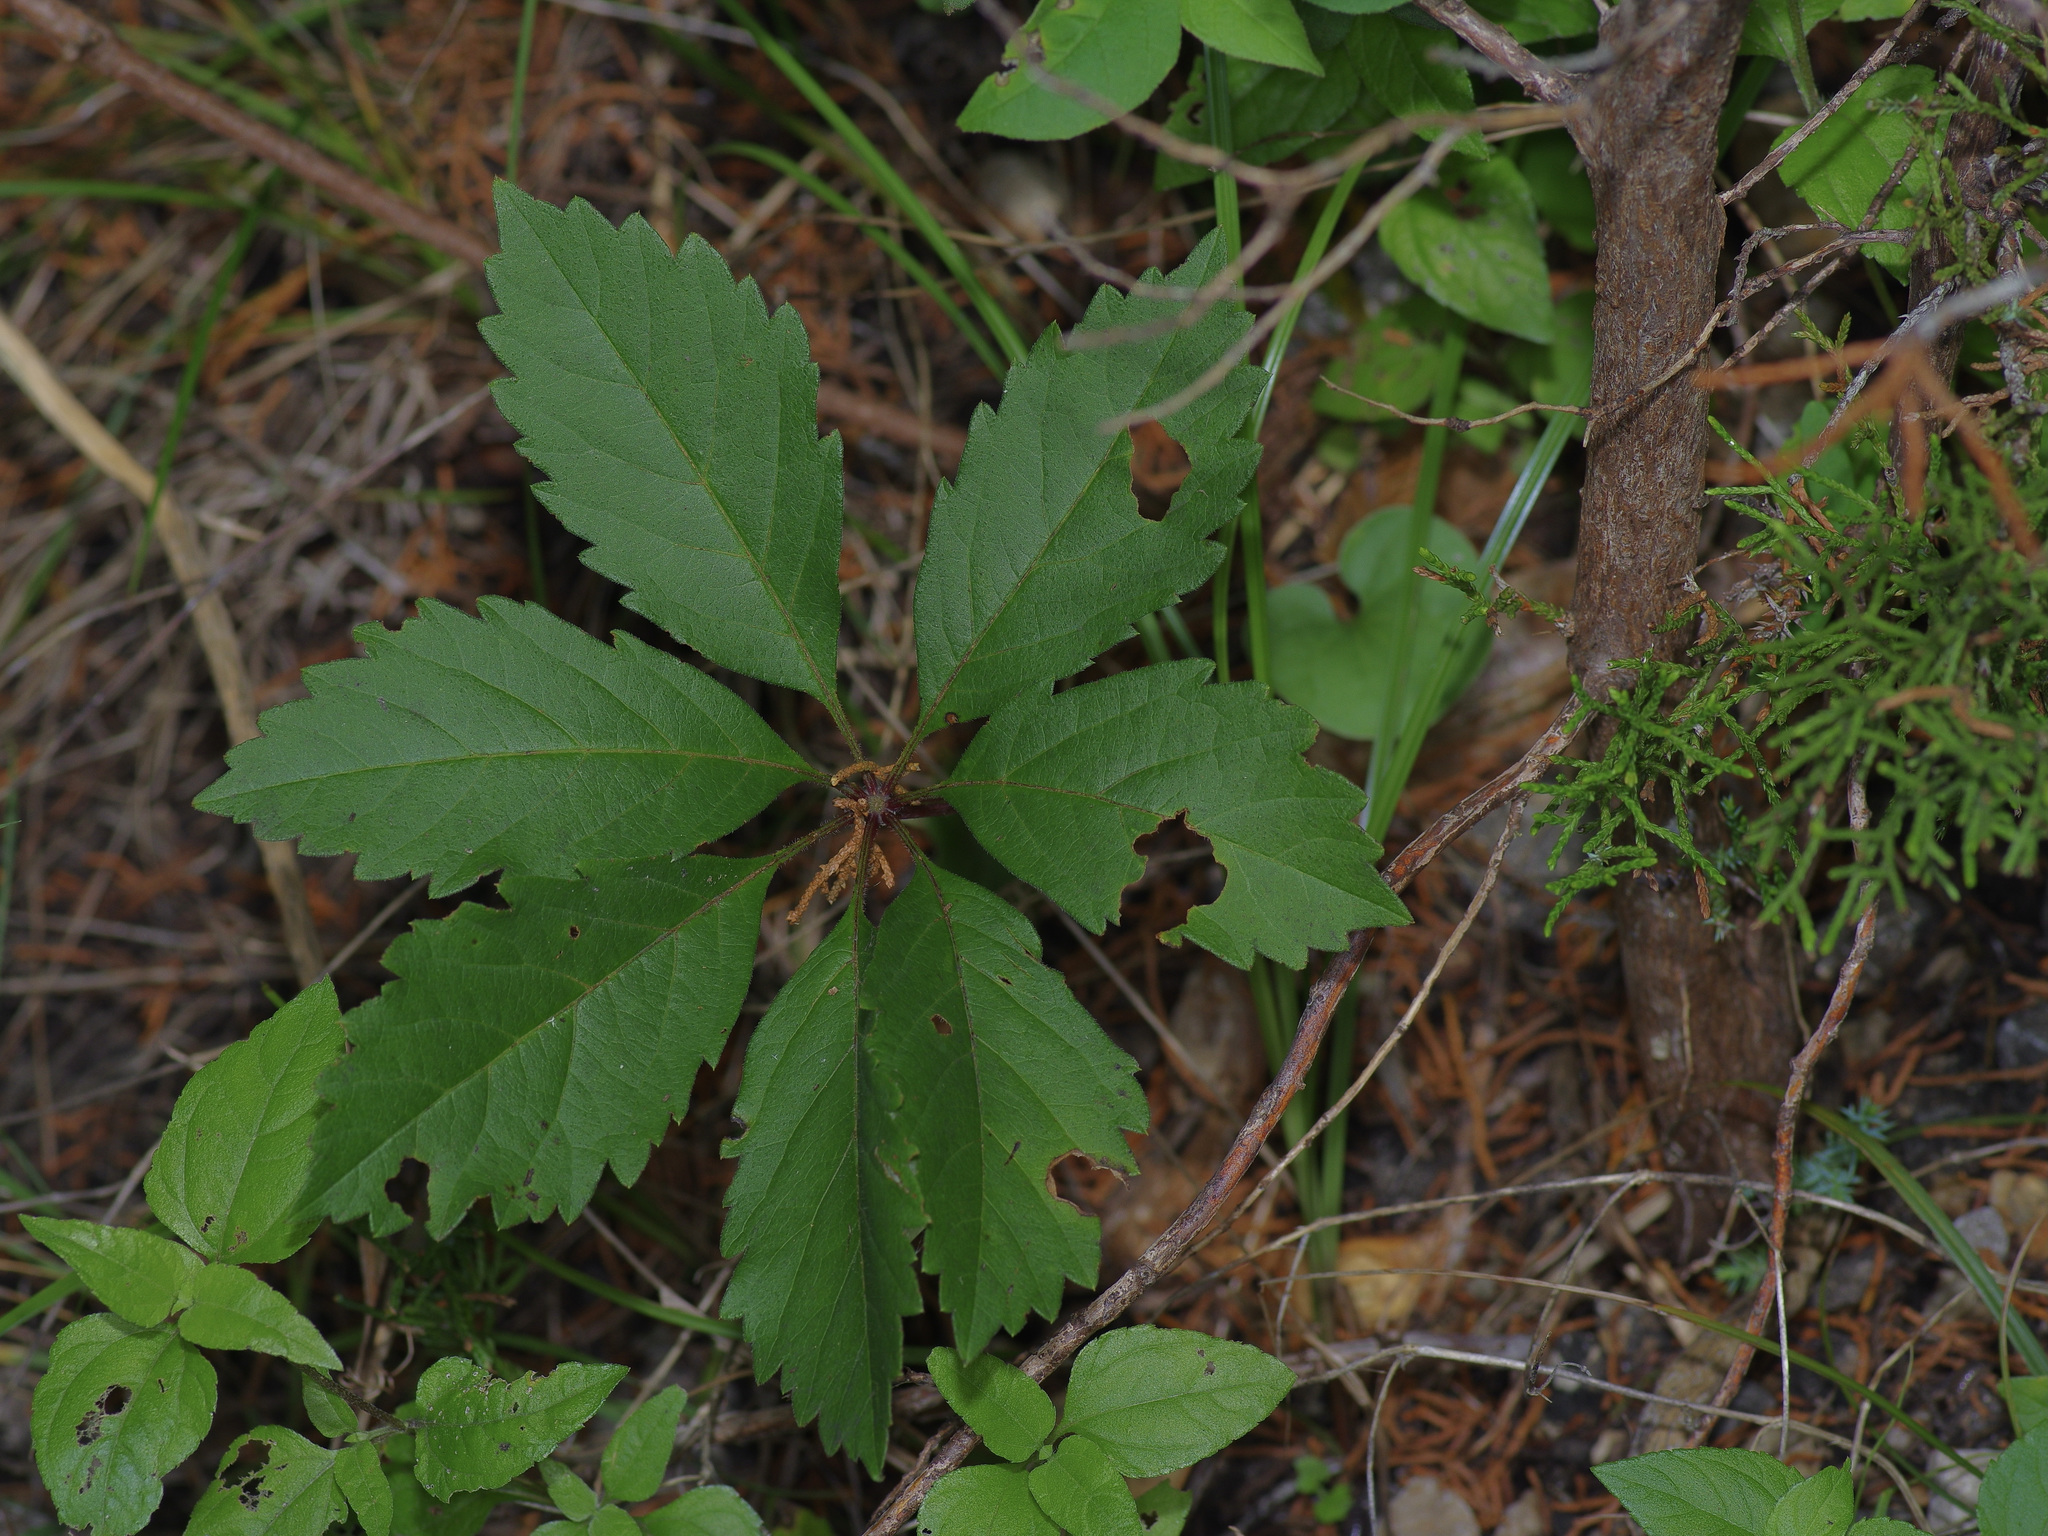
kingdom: Plantae
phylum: Tracheophyta
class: Magnoliopsida
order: Vitales
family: Vitaceae
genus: Parthenocissus
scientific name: Parthenocissus heptaphylla
